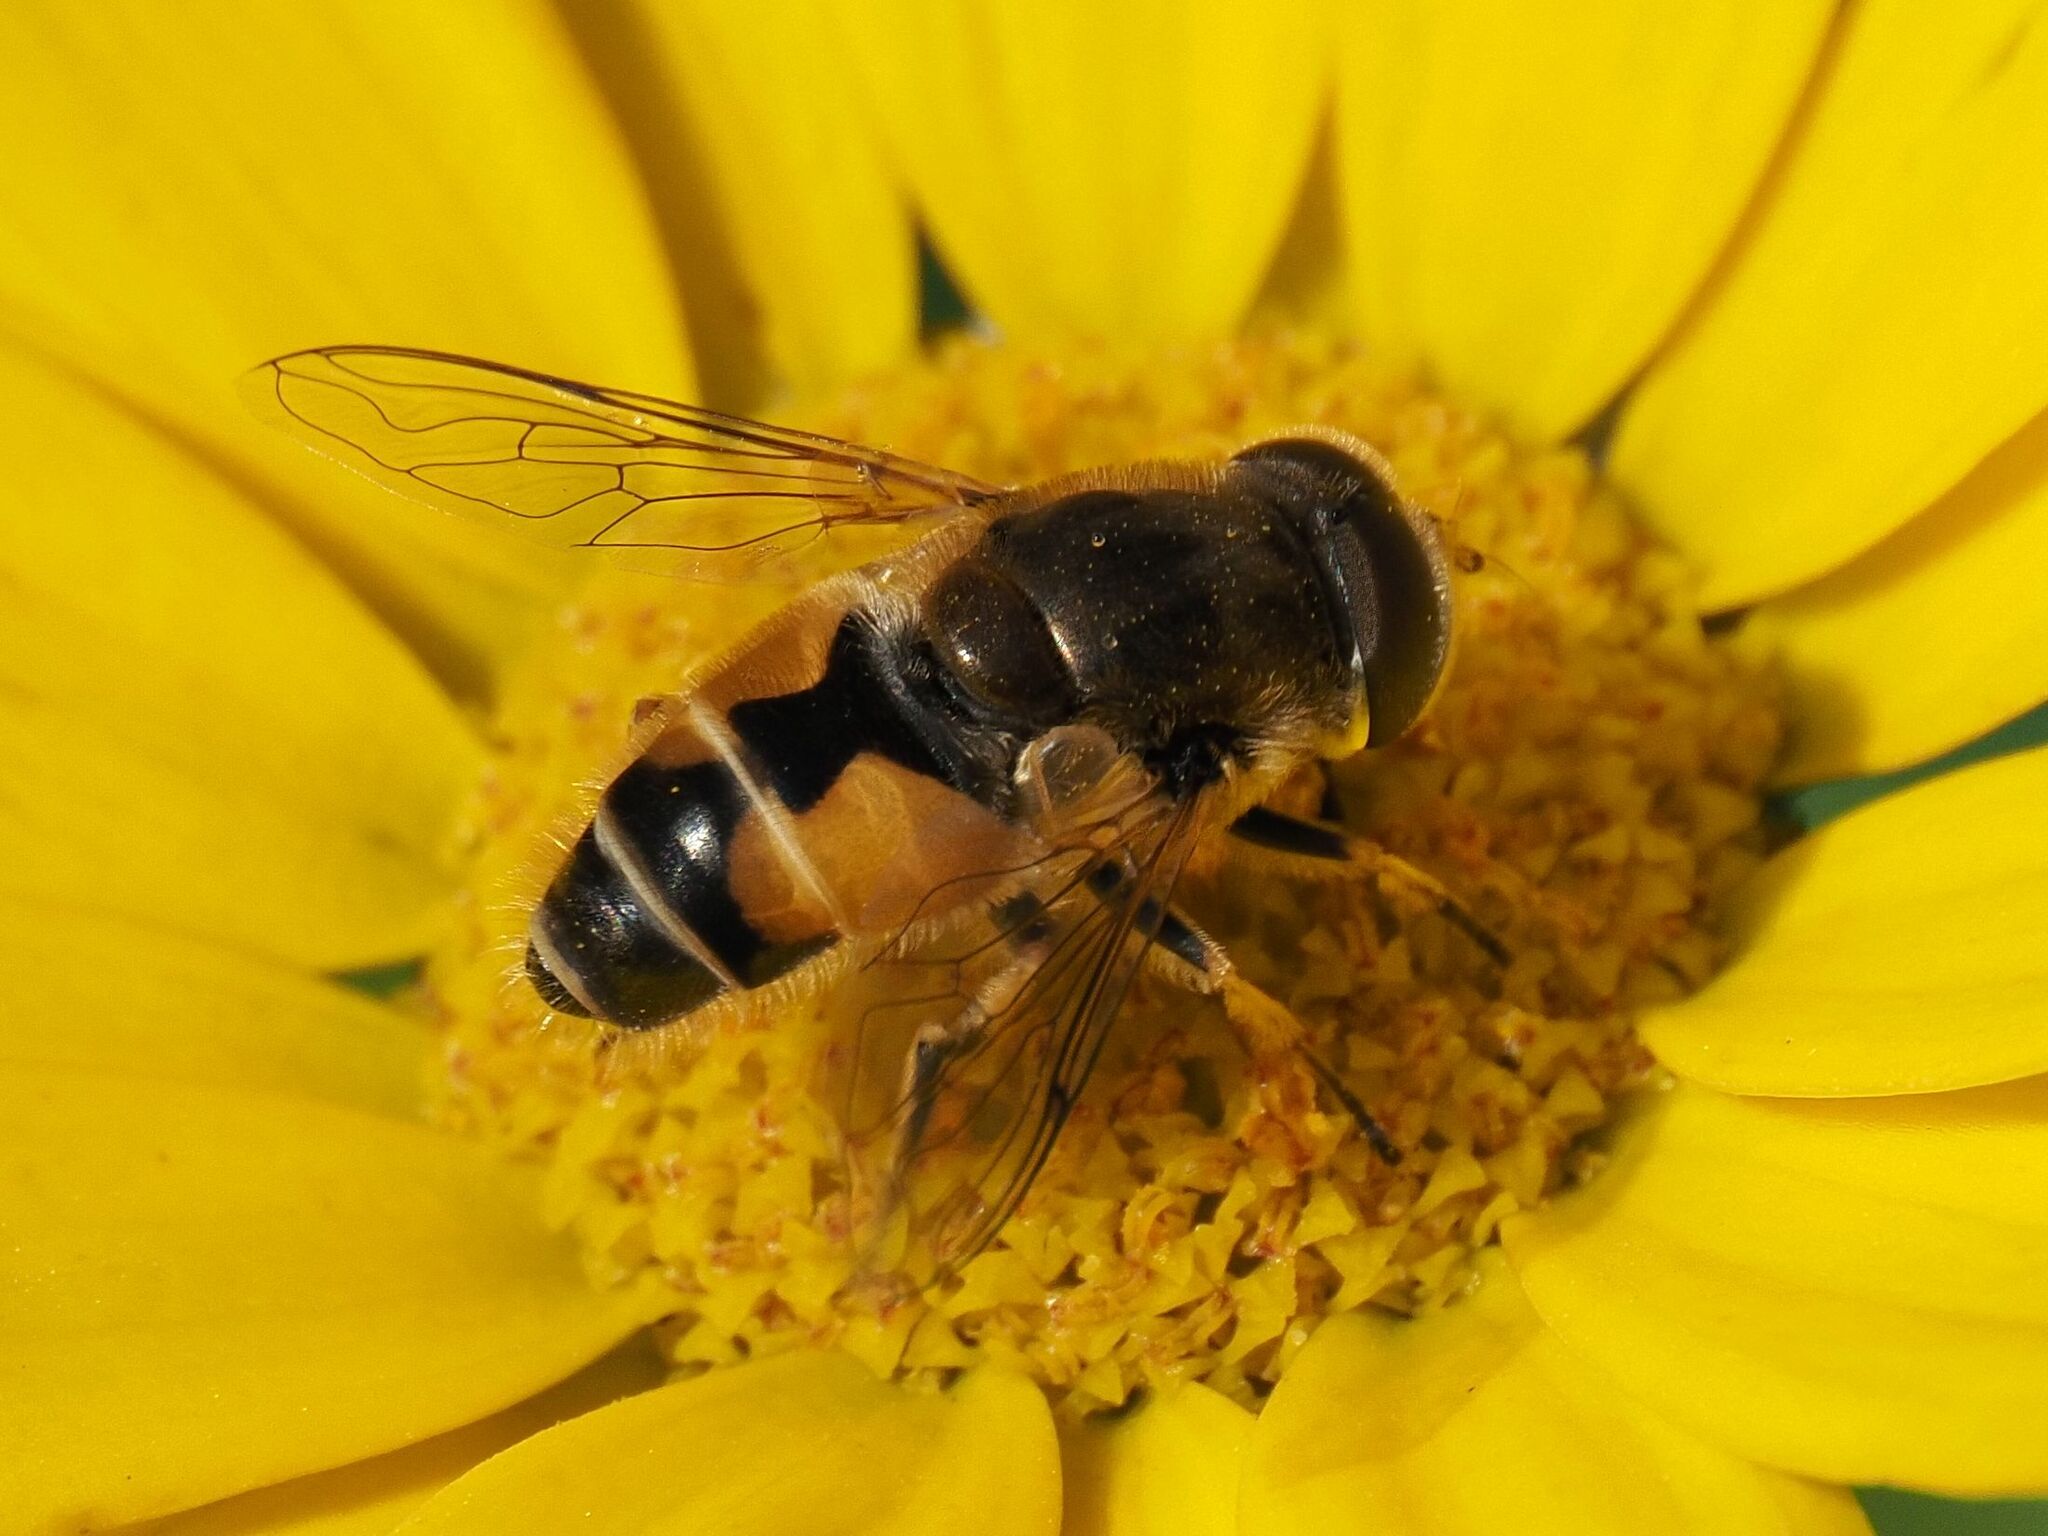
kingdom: Animalia
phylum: Arthropoda
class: Insecta
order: Diptera
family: Syrphidae
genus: Eristalis
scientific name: Eristalis arbustorum
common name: Hover fly
